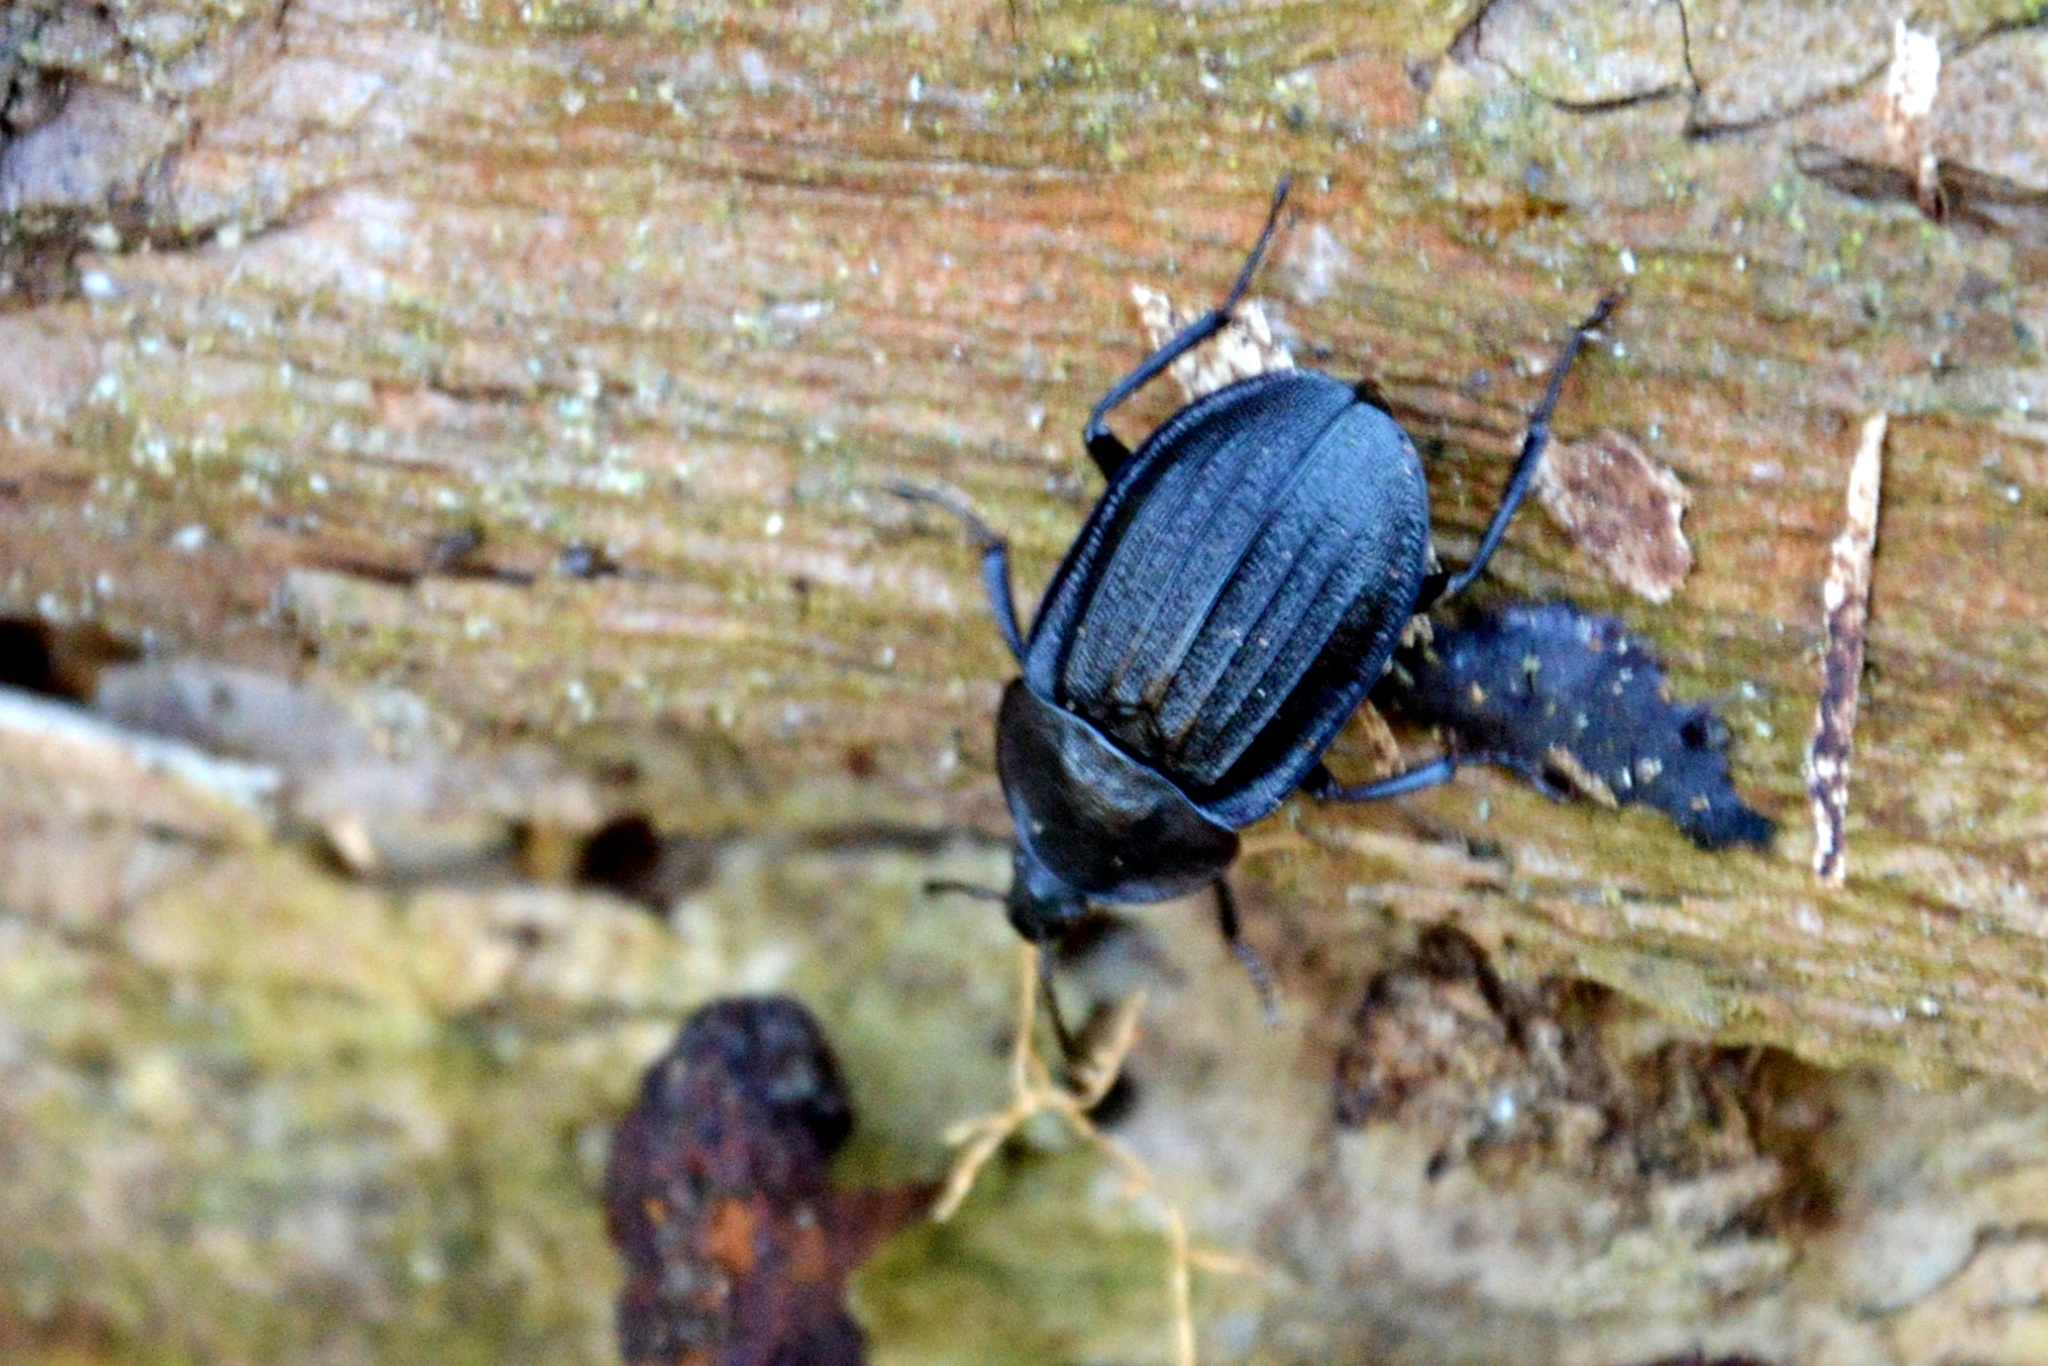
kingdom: Animalia
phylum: Arthropoda
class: Insecta
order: Coleoptera
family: Staphylinidae
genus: Silpha
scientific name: Silpha atrata
